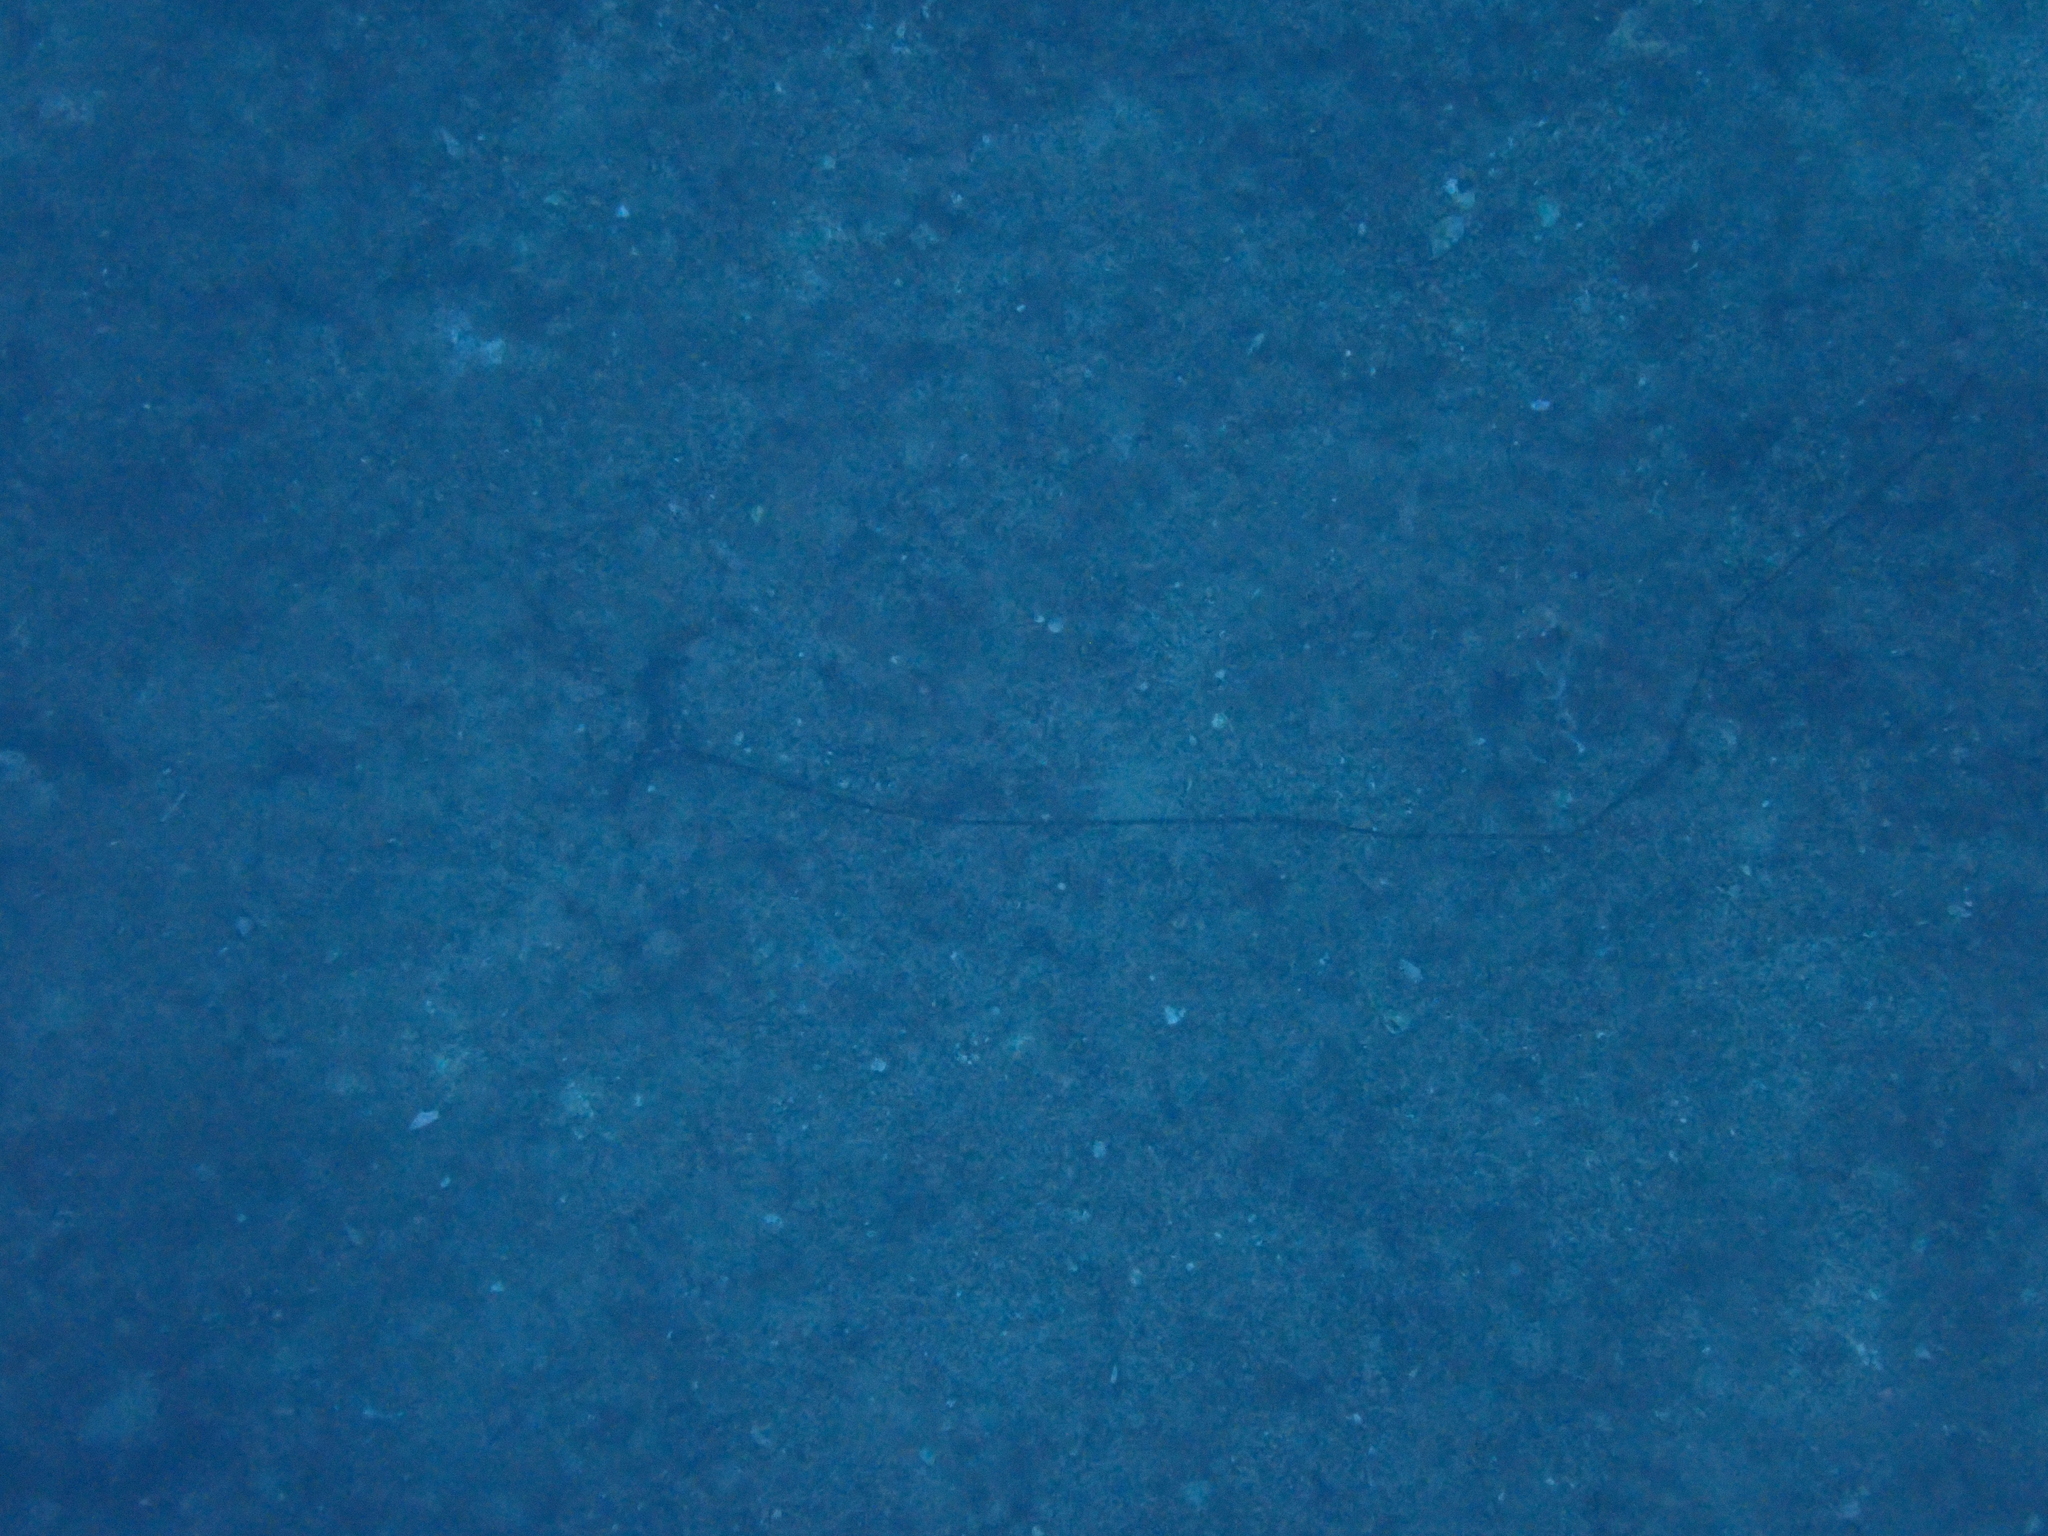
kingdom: Animalia
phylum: Annelida
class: Polychaeta
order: Echiuroidea
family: Bonelliidae
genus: Bonellia
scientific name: Bonellia viridis
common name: Green spoon worm
